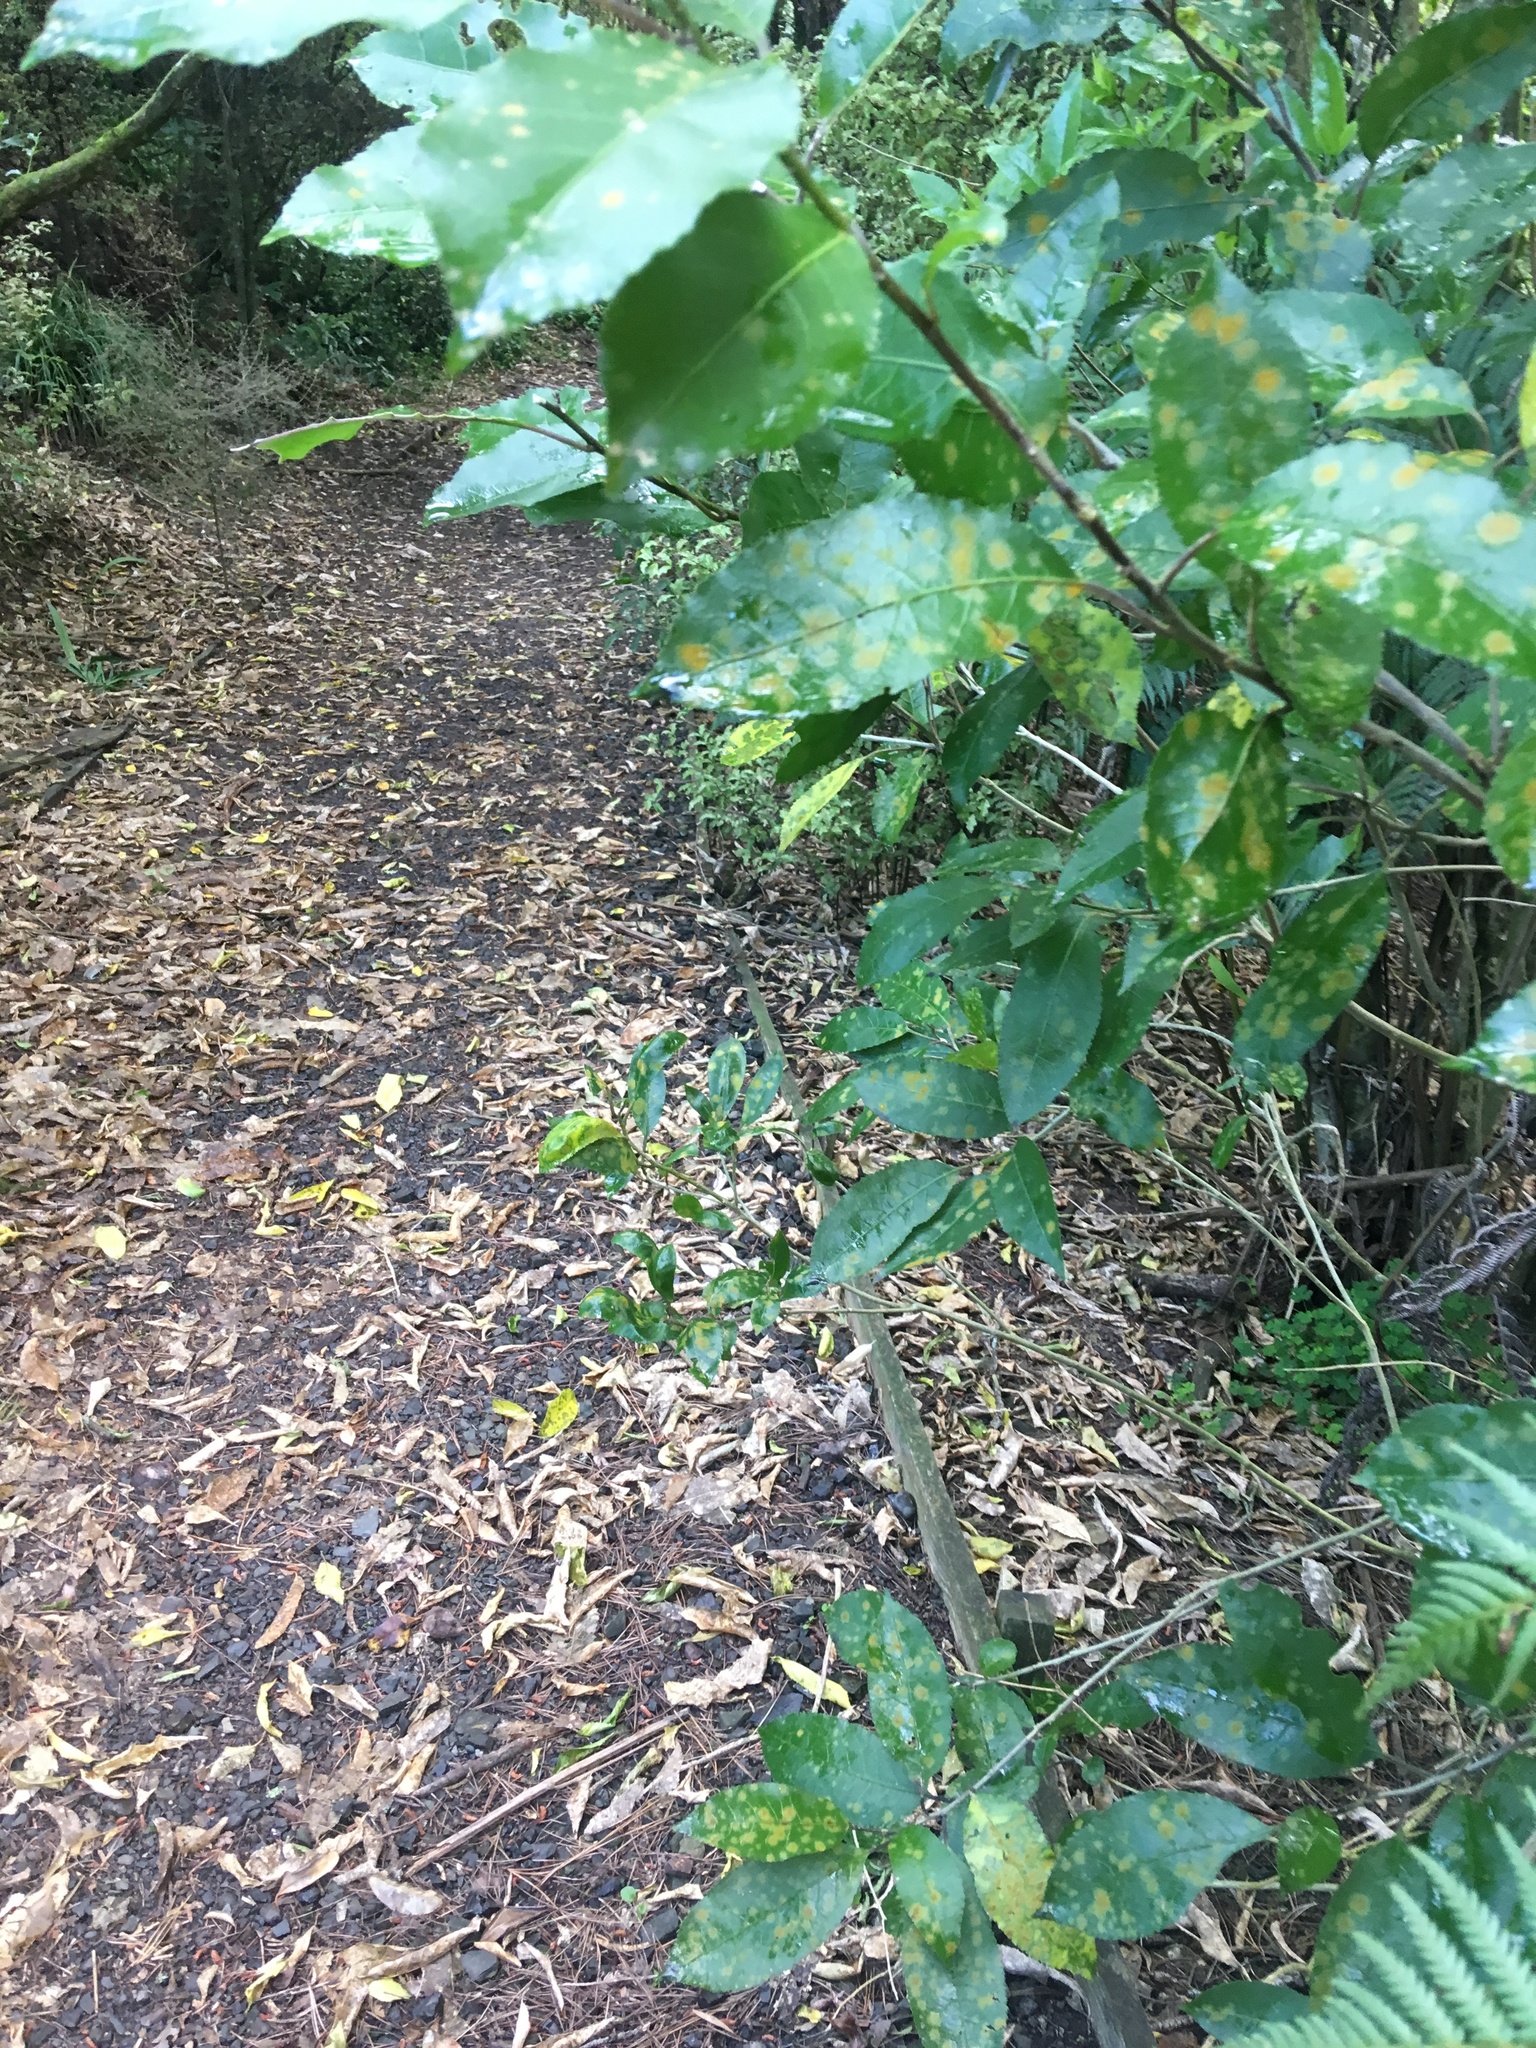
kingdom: Plantae
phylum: Tracheophyta
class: Magnoliopsida
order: Malpighiales
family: Violaceae
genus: Melicytus
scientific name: Melicytus ramiflorus
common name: Mahoe
